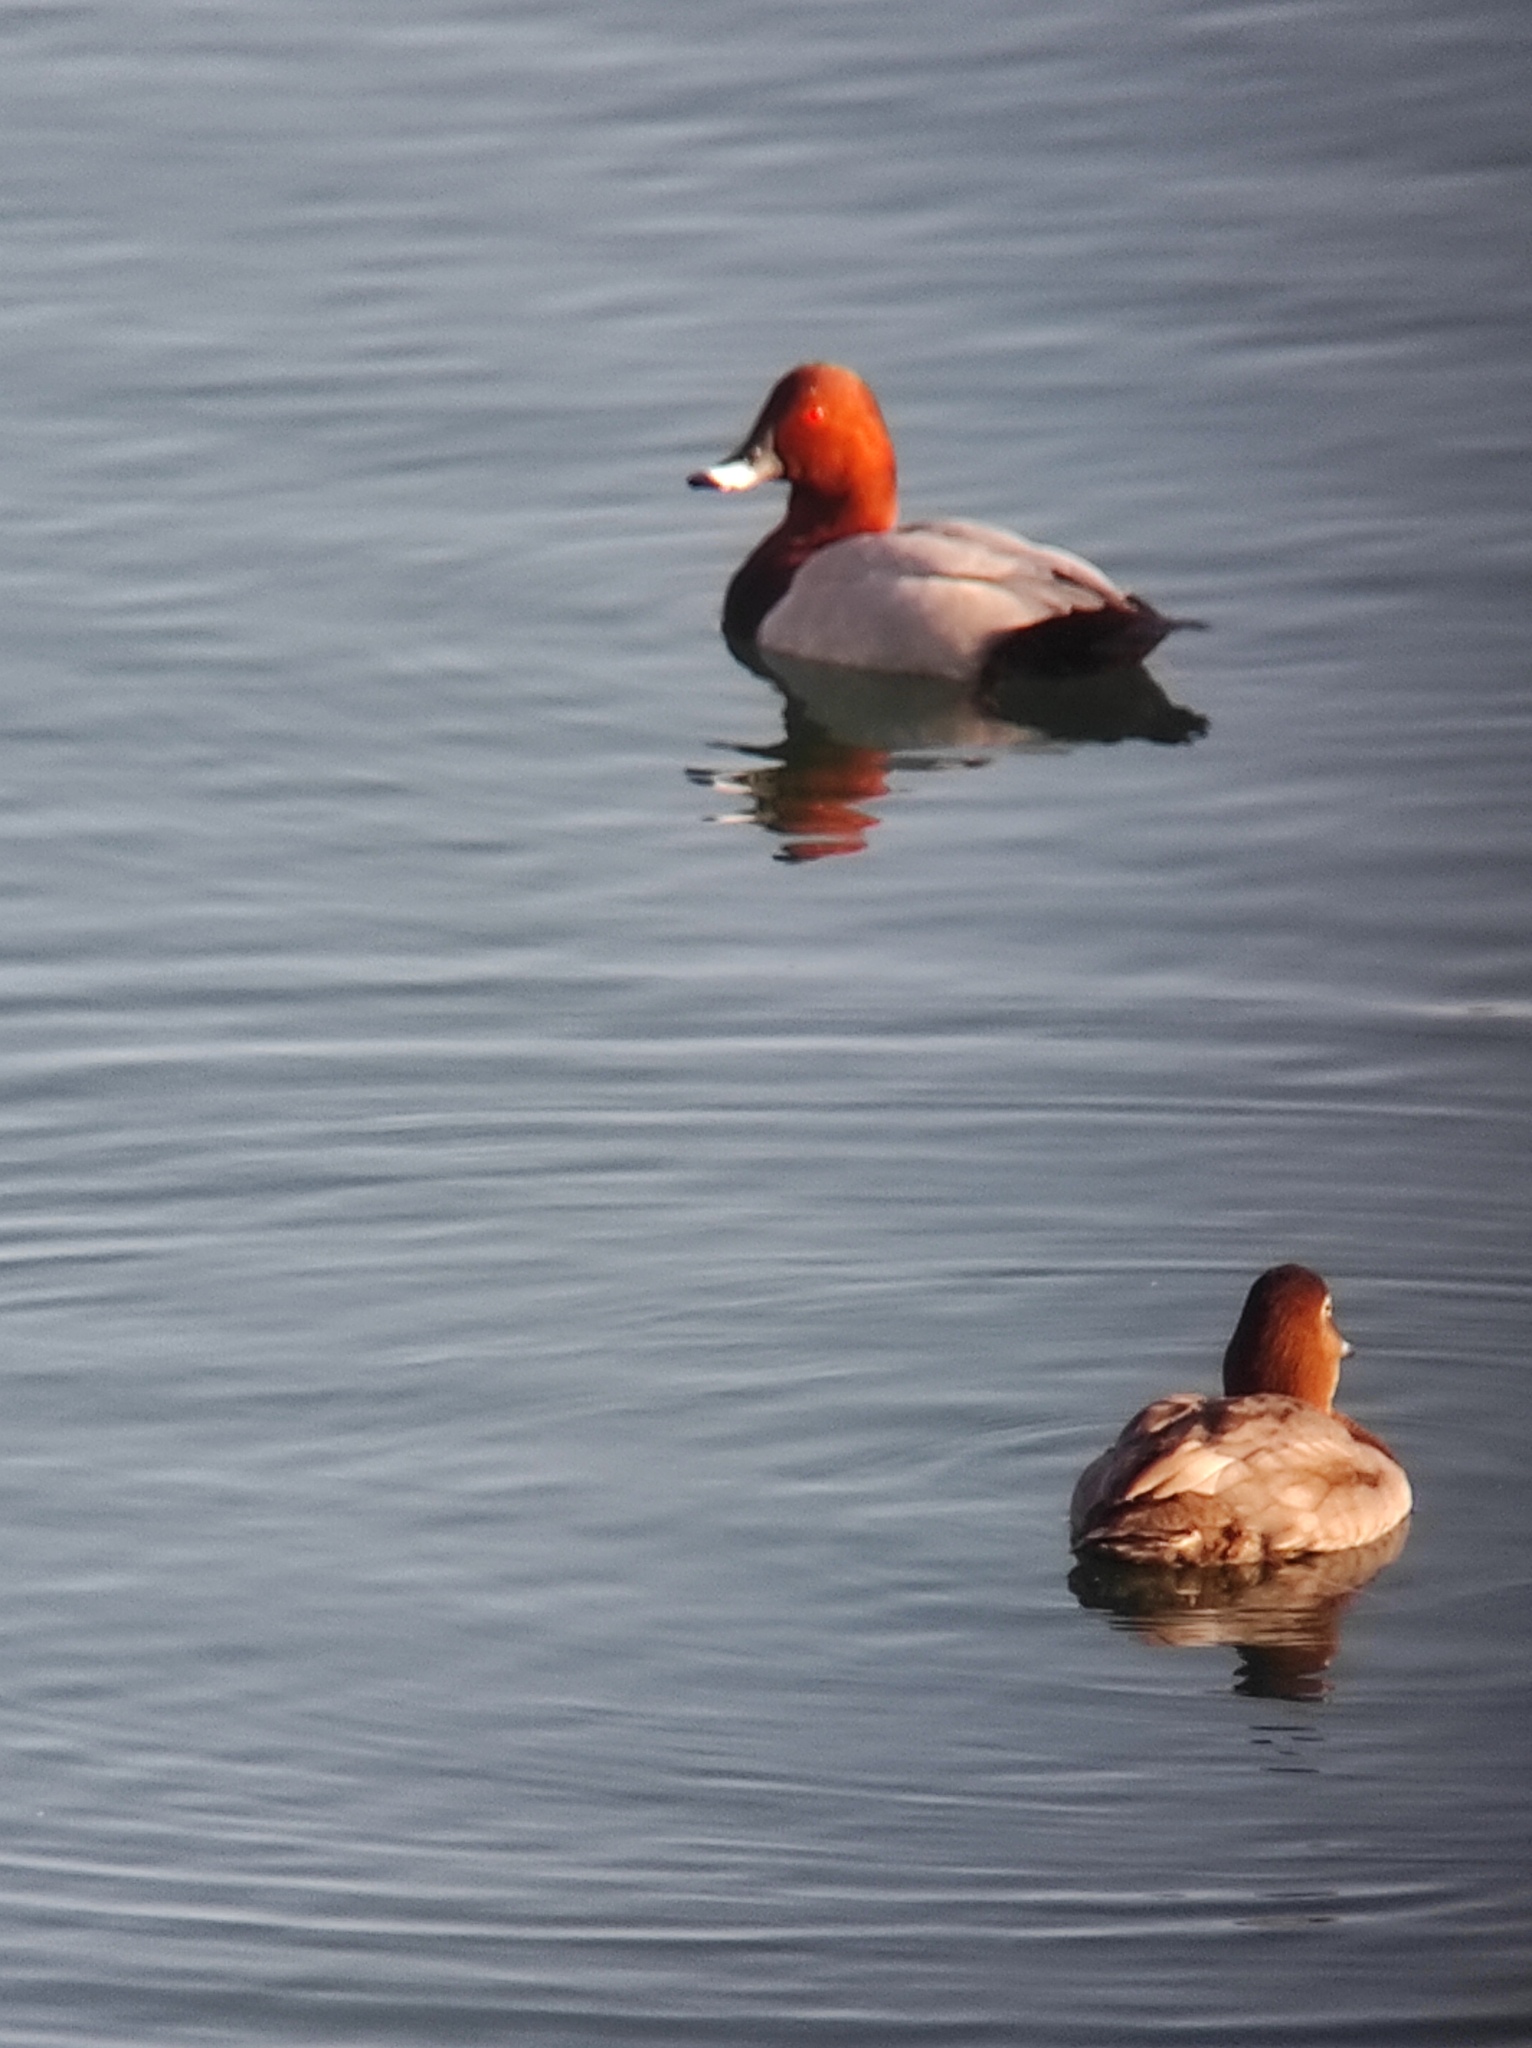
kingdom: Animalia
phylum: Chordata
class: Aves
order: Anseriformes
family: Anatidae
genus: Aythya
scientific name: Aythya ferina
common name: Common pochard
